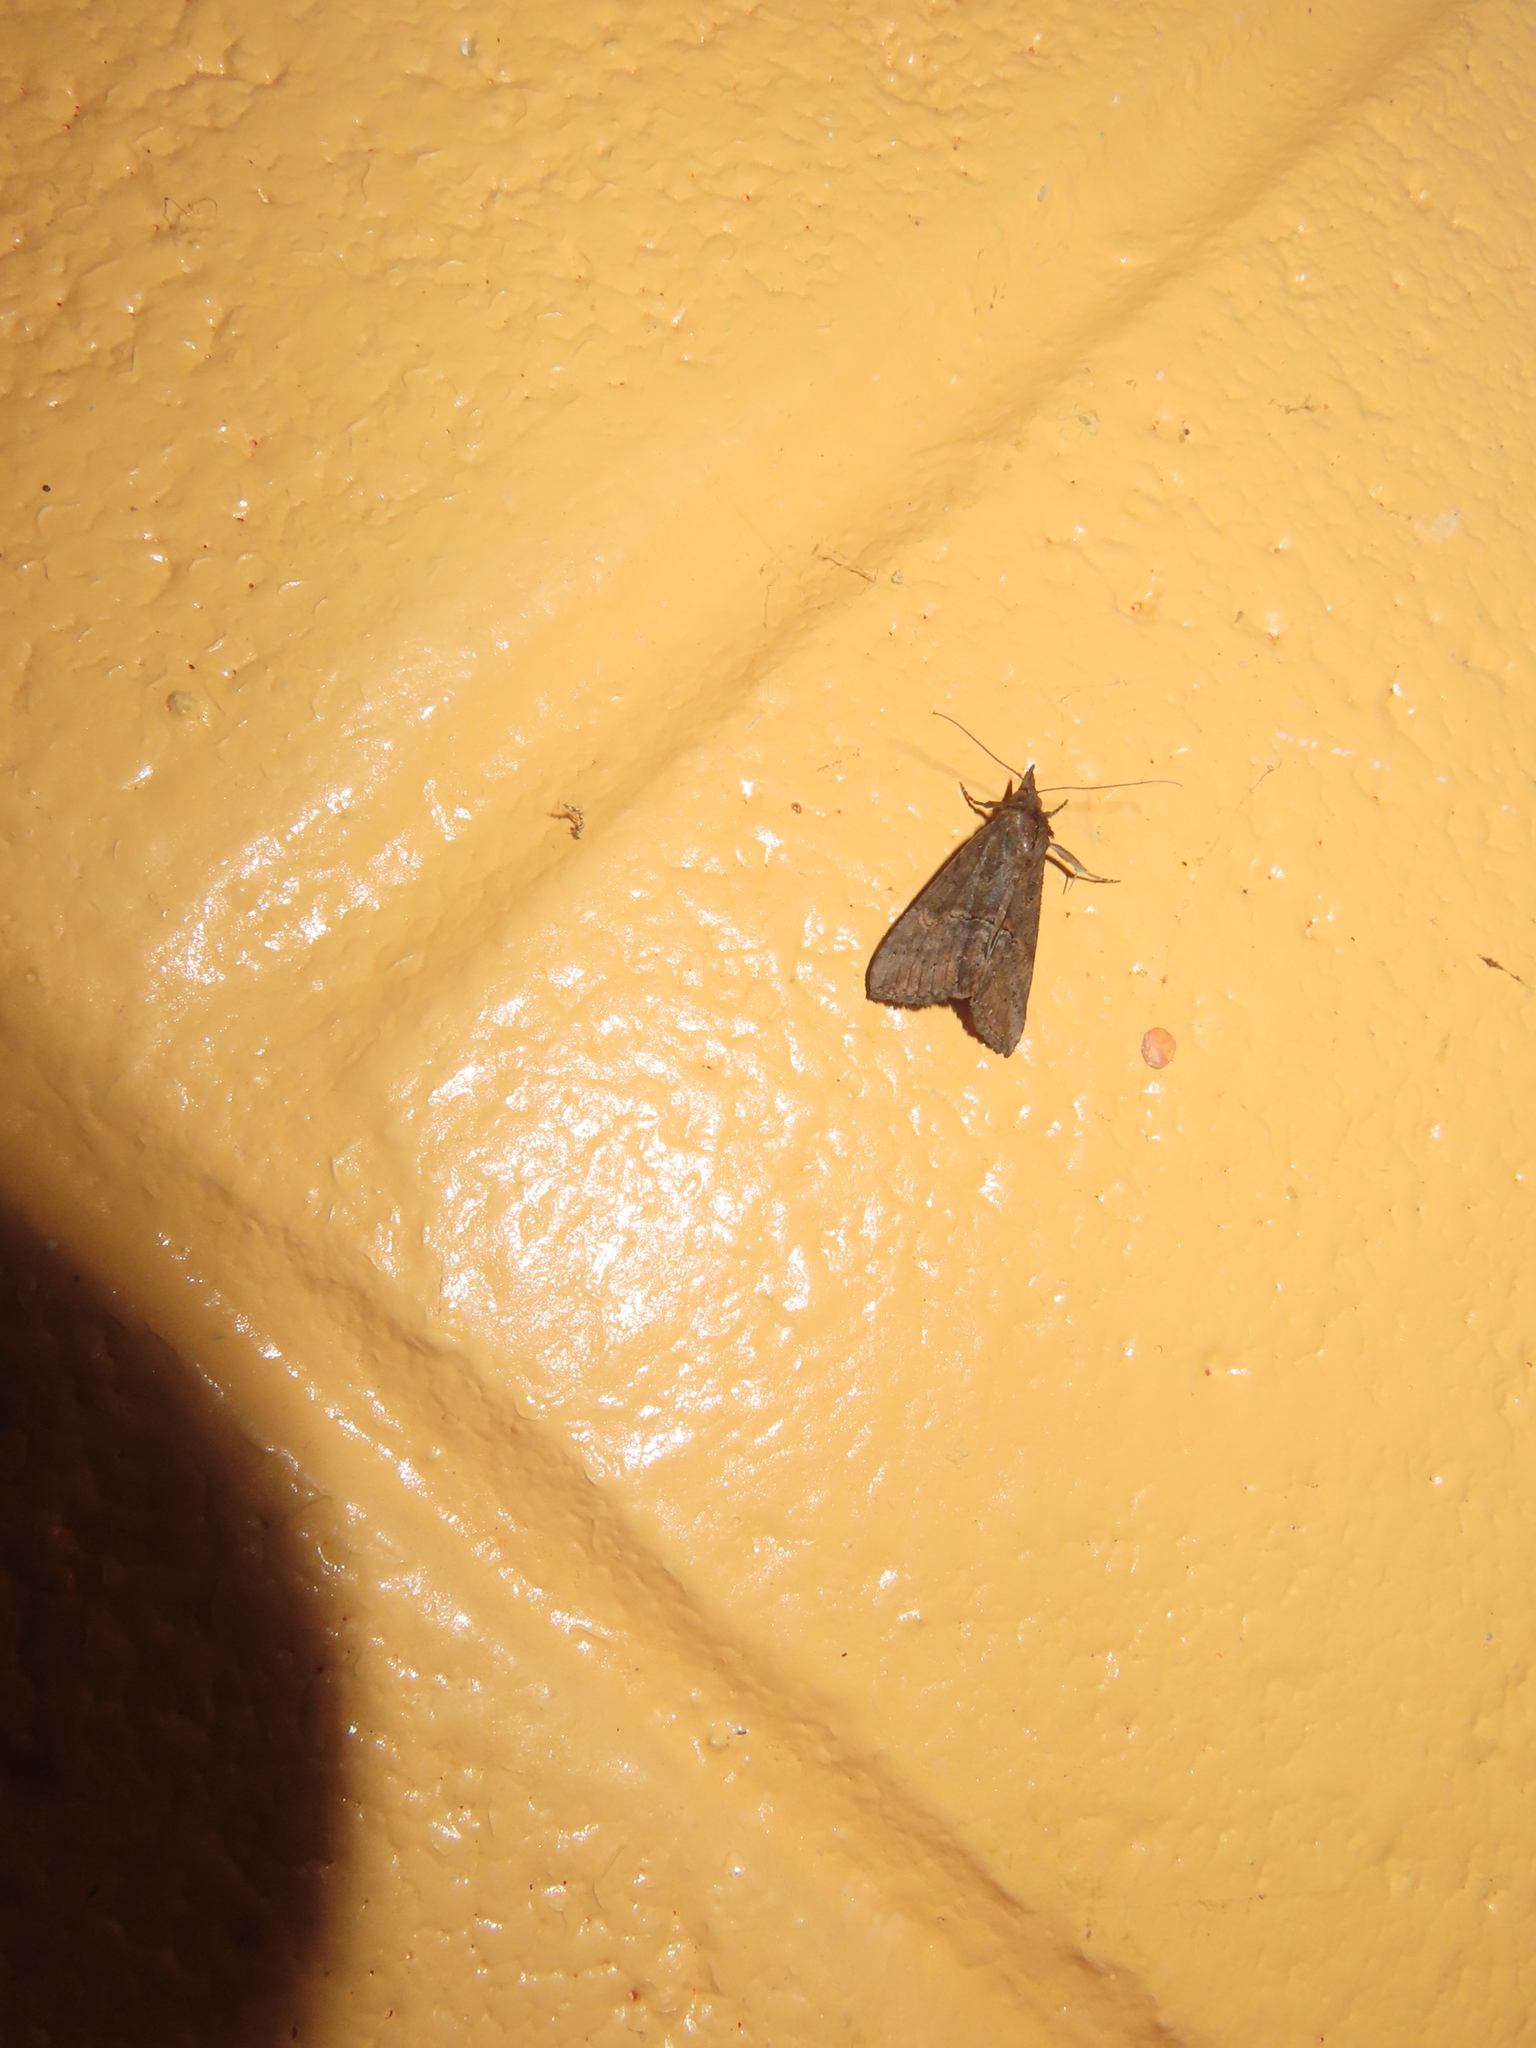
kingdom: Animalia
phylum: Arthropoda
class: Insecta
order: Lepidoptera
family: Erebidae
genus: Hypena
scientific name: Hypena scabra
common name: Green cloverworm
